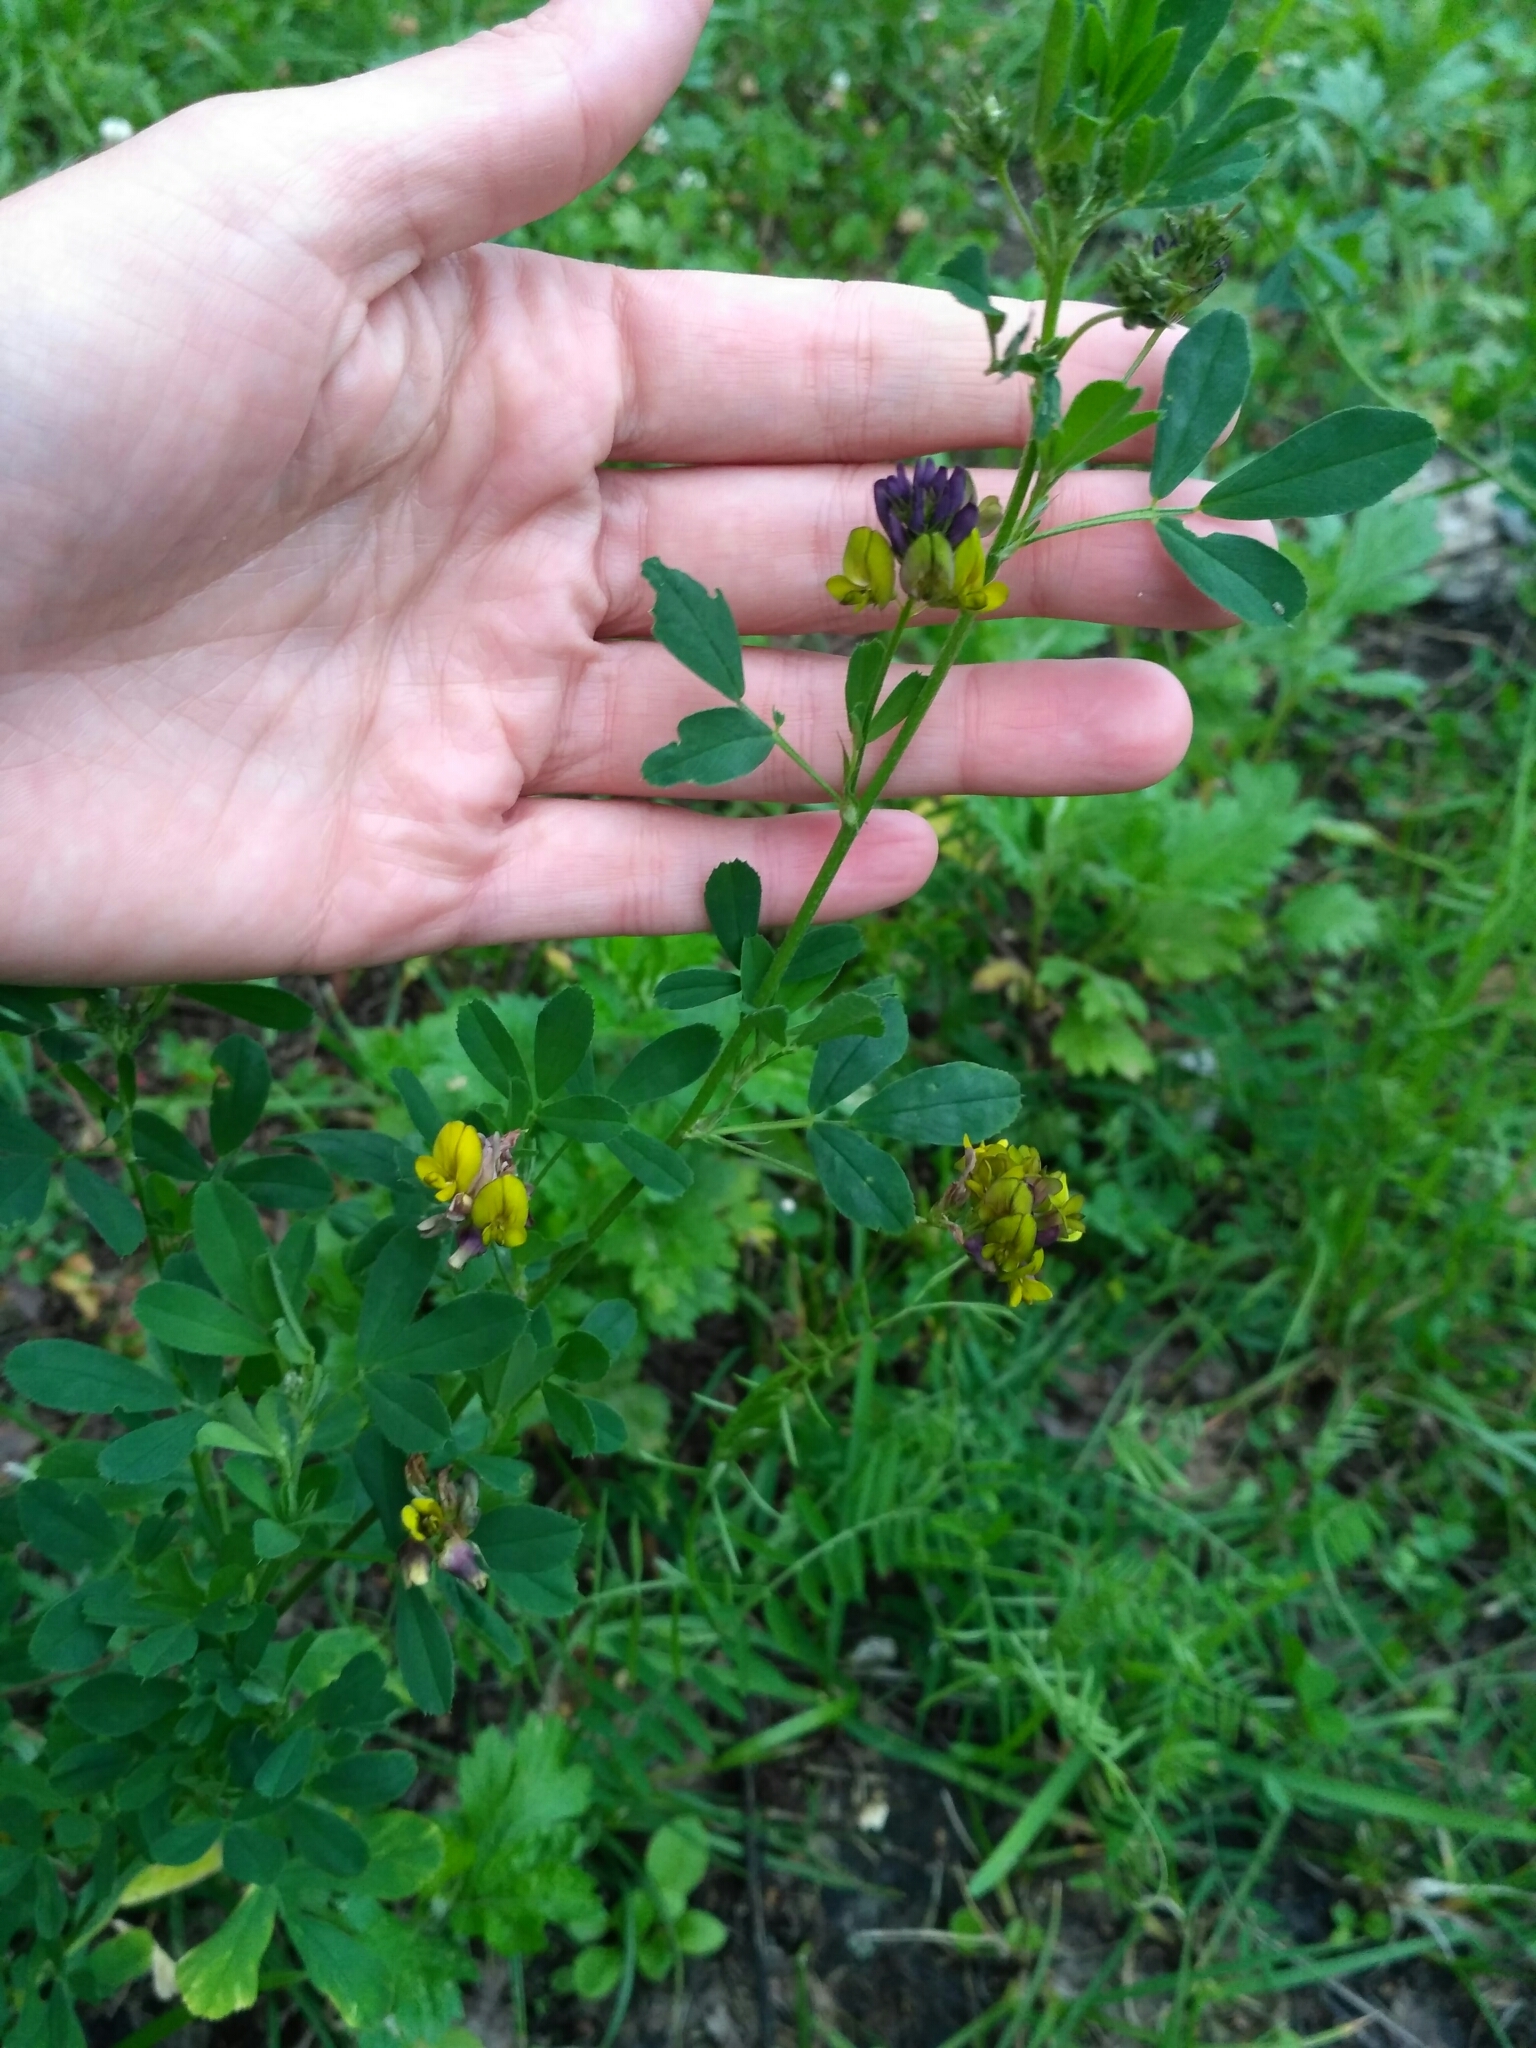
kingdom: Plantae
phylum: Tracheophyta
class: Magnoliopsida
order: Fabales
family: Fabaceae
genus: Medicago
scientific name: Medicago varia
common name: Sand lucerne
